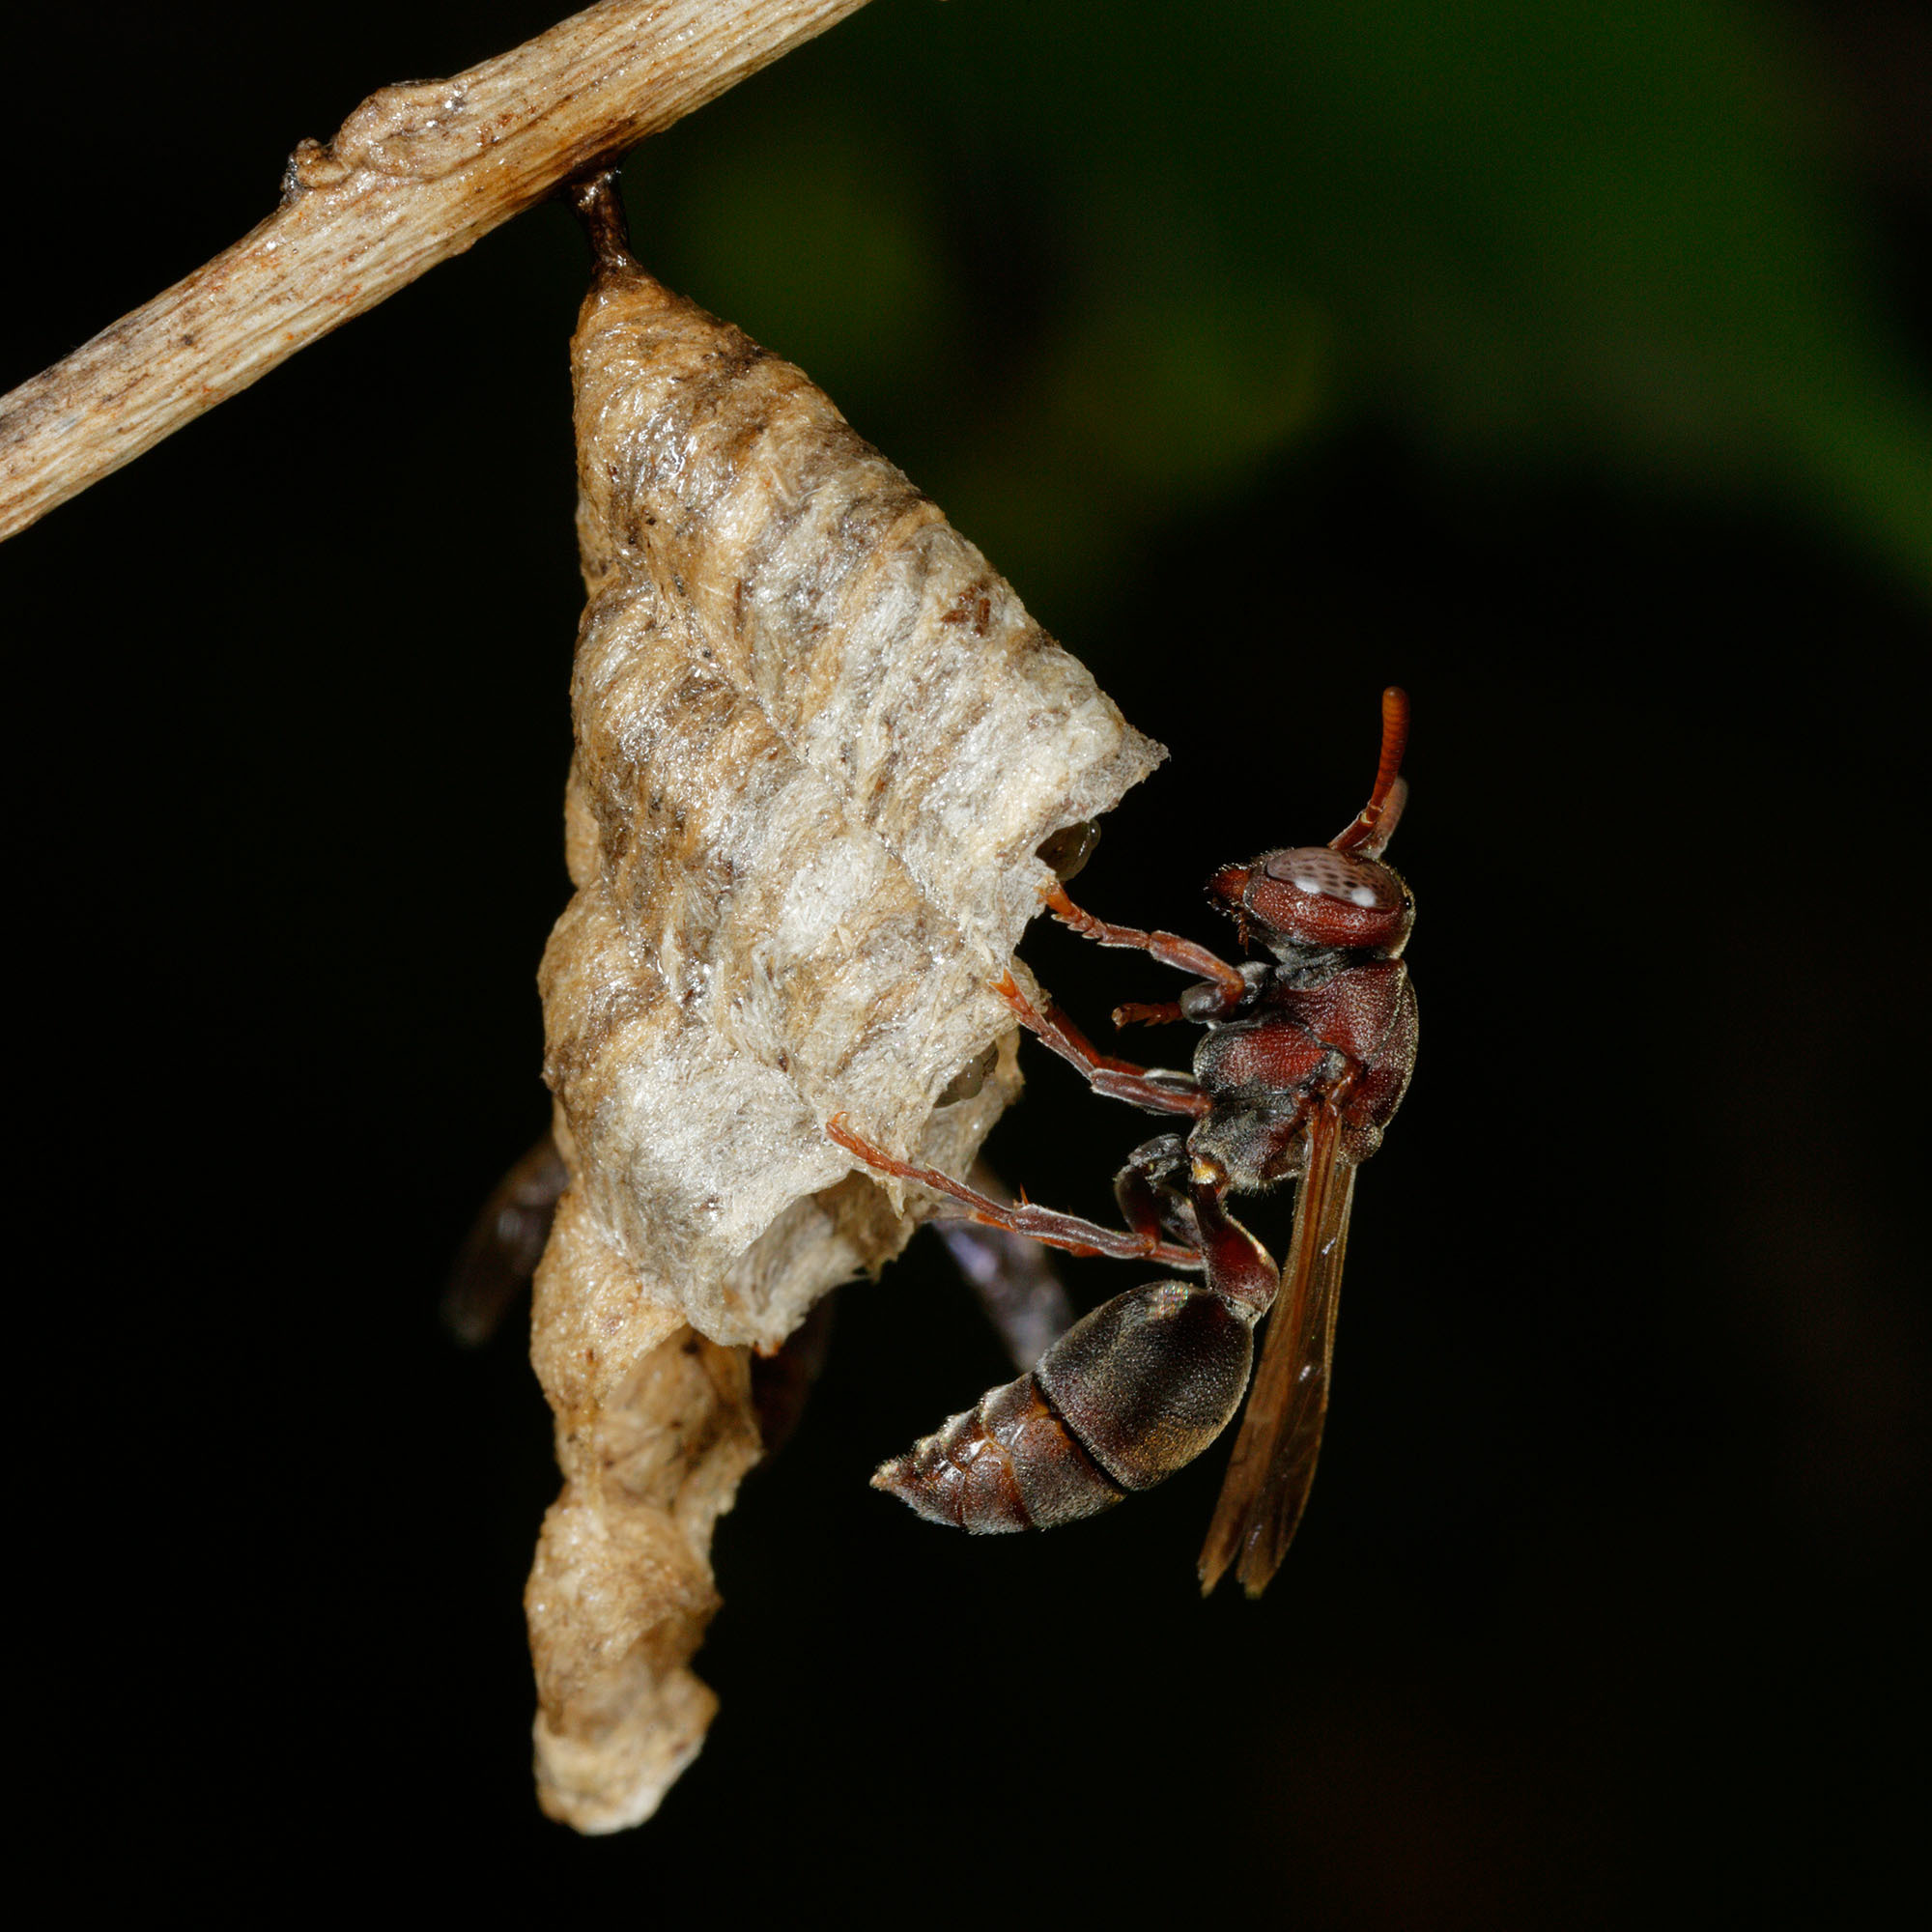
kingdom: Animalia
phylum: Arthropoda
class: Insecta
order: Hymenoptera
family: Vespidae
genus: Ropalidia
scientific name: Ropalidia revolutionalis
